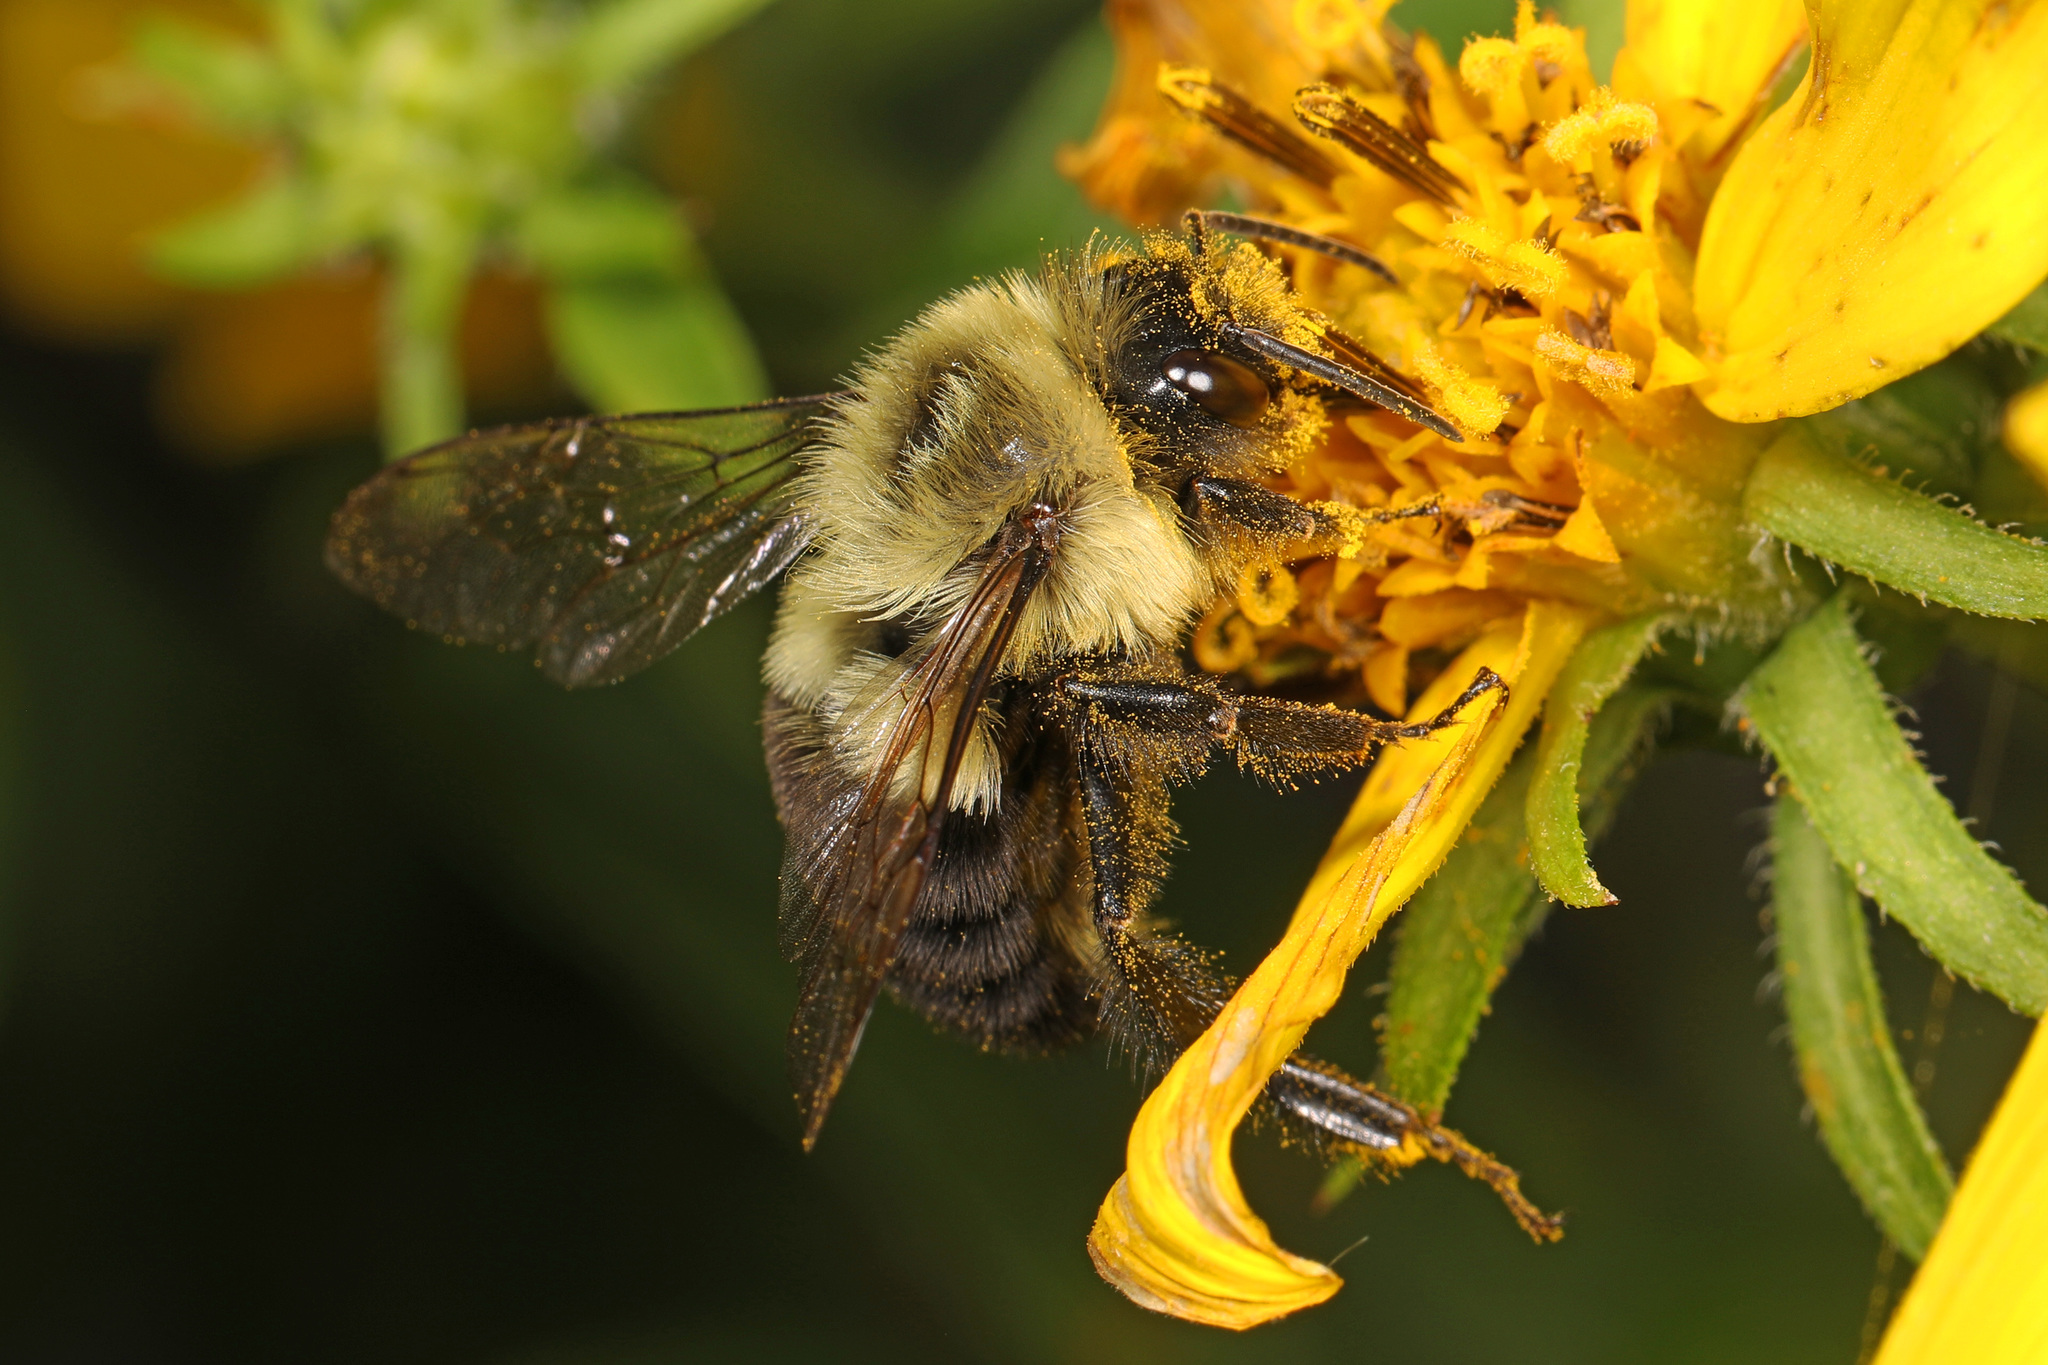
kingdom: Animalia
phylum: Arthropoda
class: Insecta
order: Hymenoptera
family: Apidae
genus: Bombus
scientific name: Bombus impatiens
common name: Common eastern bumble bee
